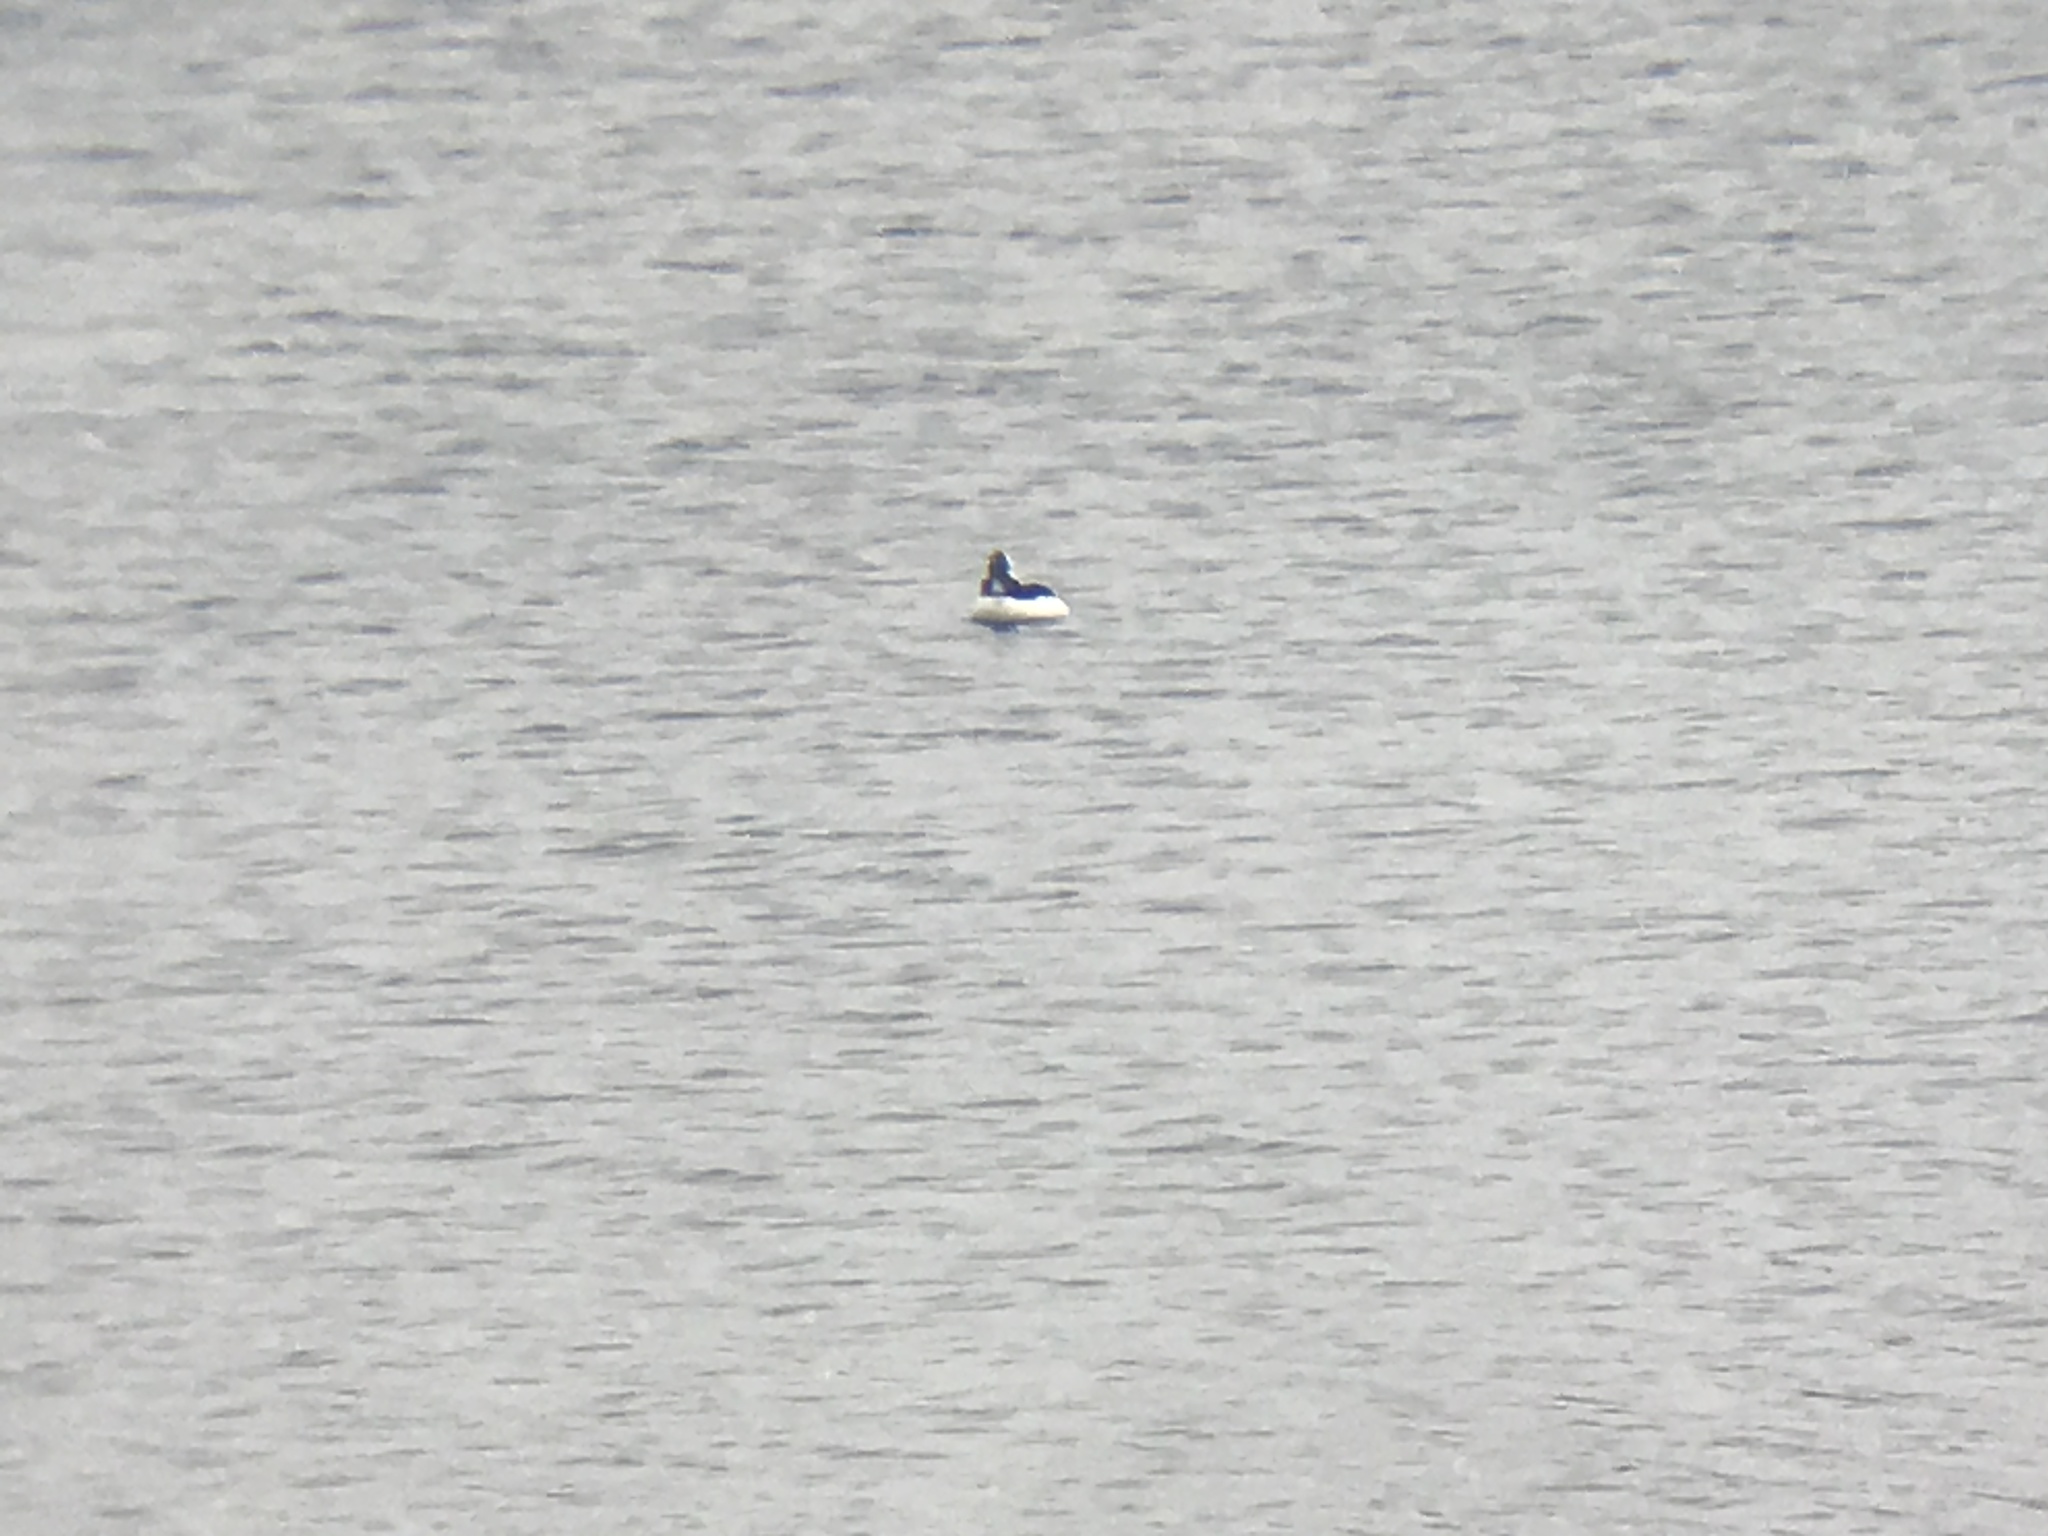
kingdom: Animalia
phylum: Chordata
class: Aves
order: Anseriformes
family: Anatidae
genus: Bucephala
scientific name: Bucephala albeola
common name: Bufflehead
